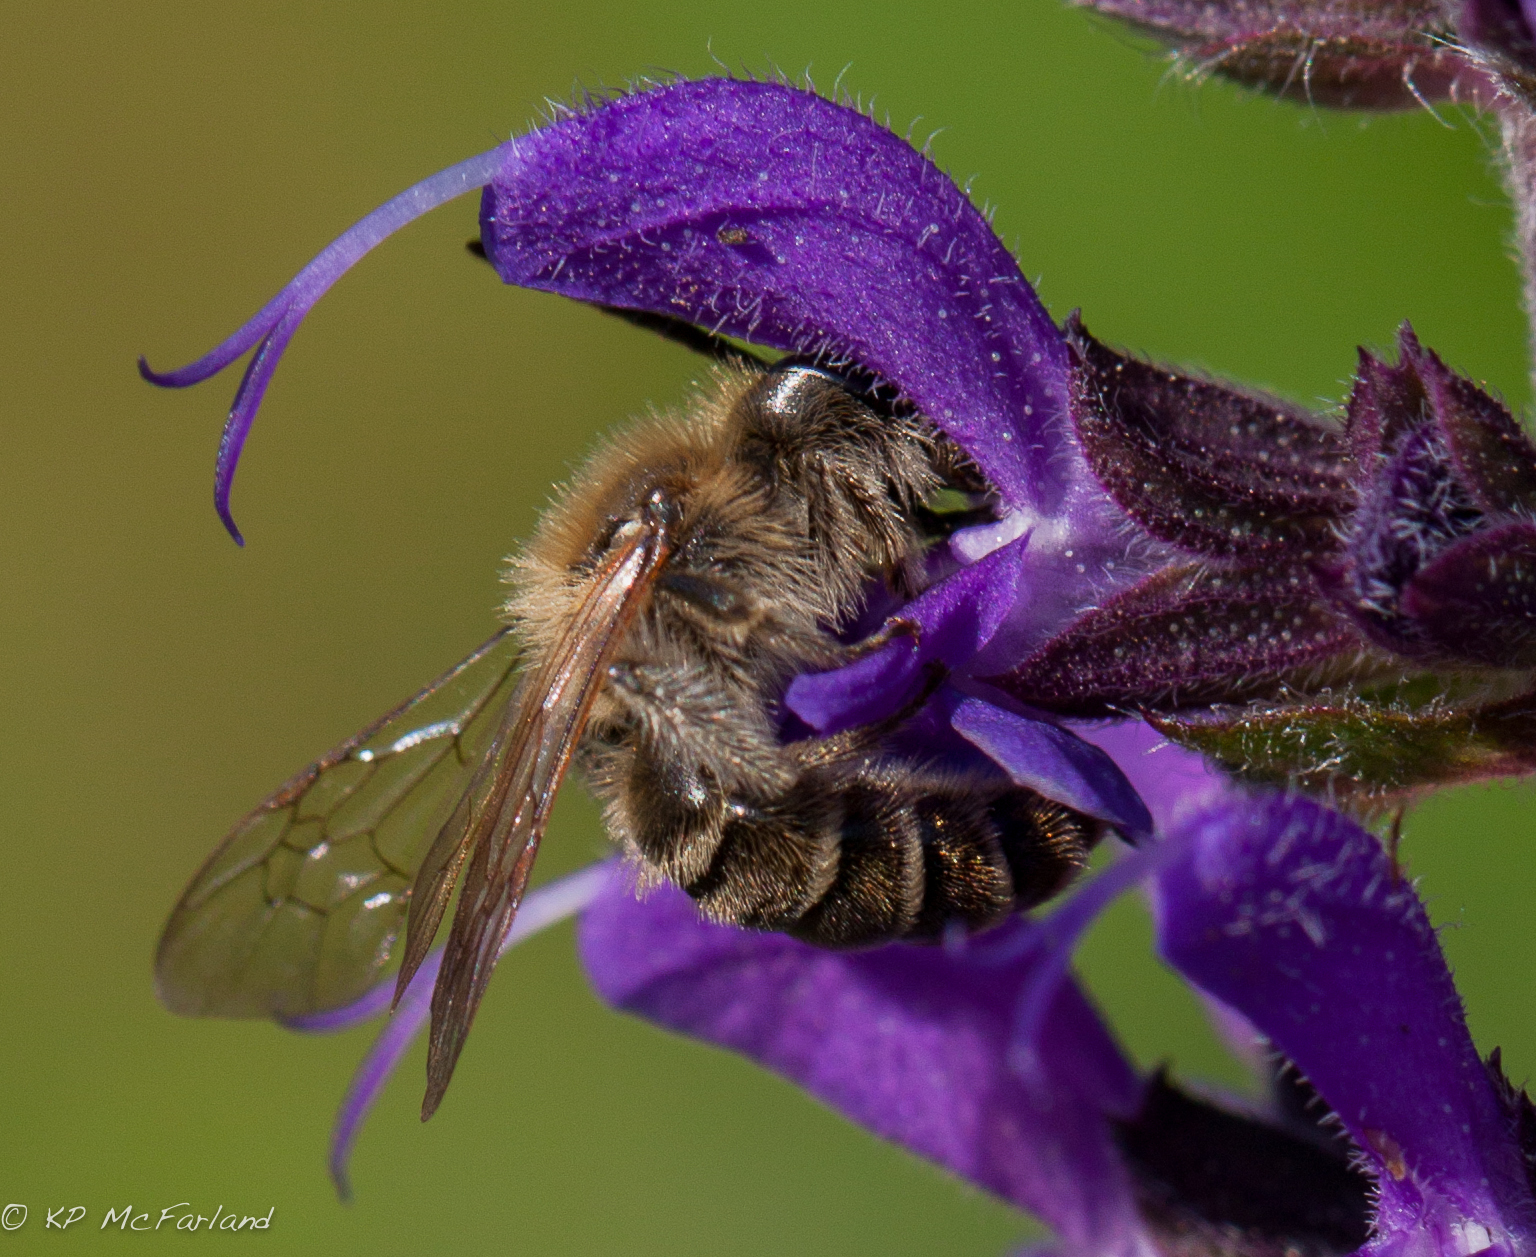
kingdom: Animalia
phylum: Arthropoda
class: Insecta
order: Hymenoptera
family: Andrenidae
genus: Andrena
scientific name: Andrena
